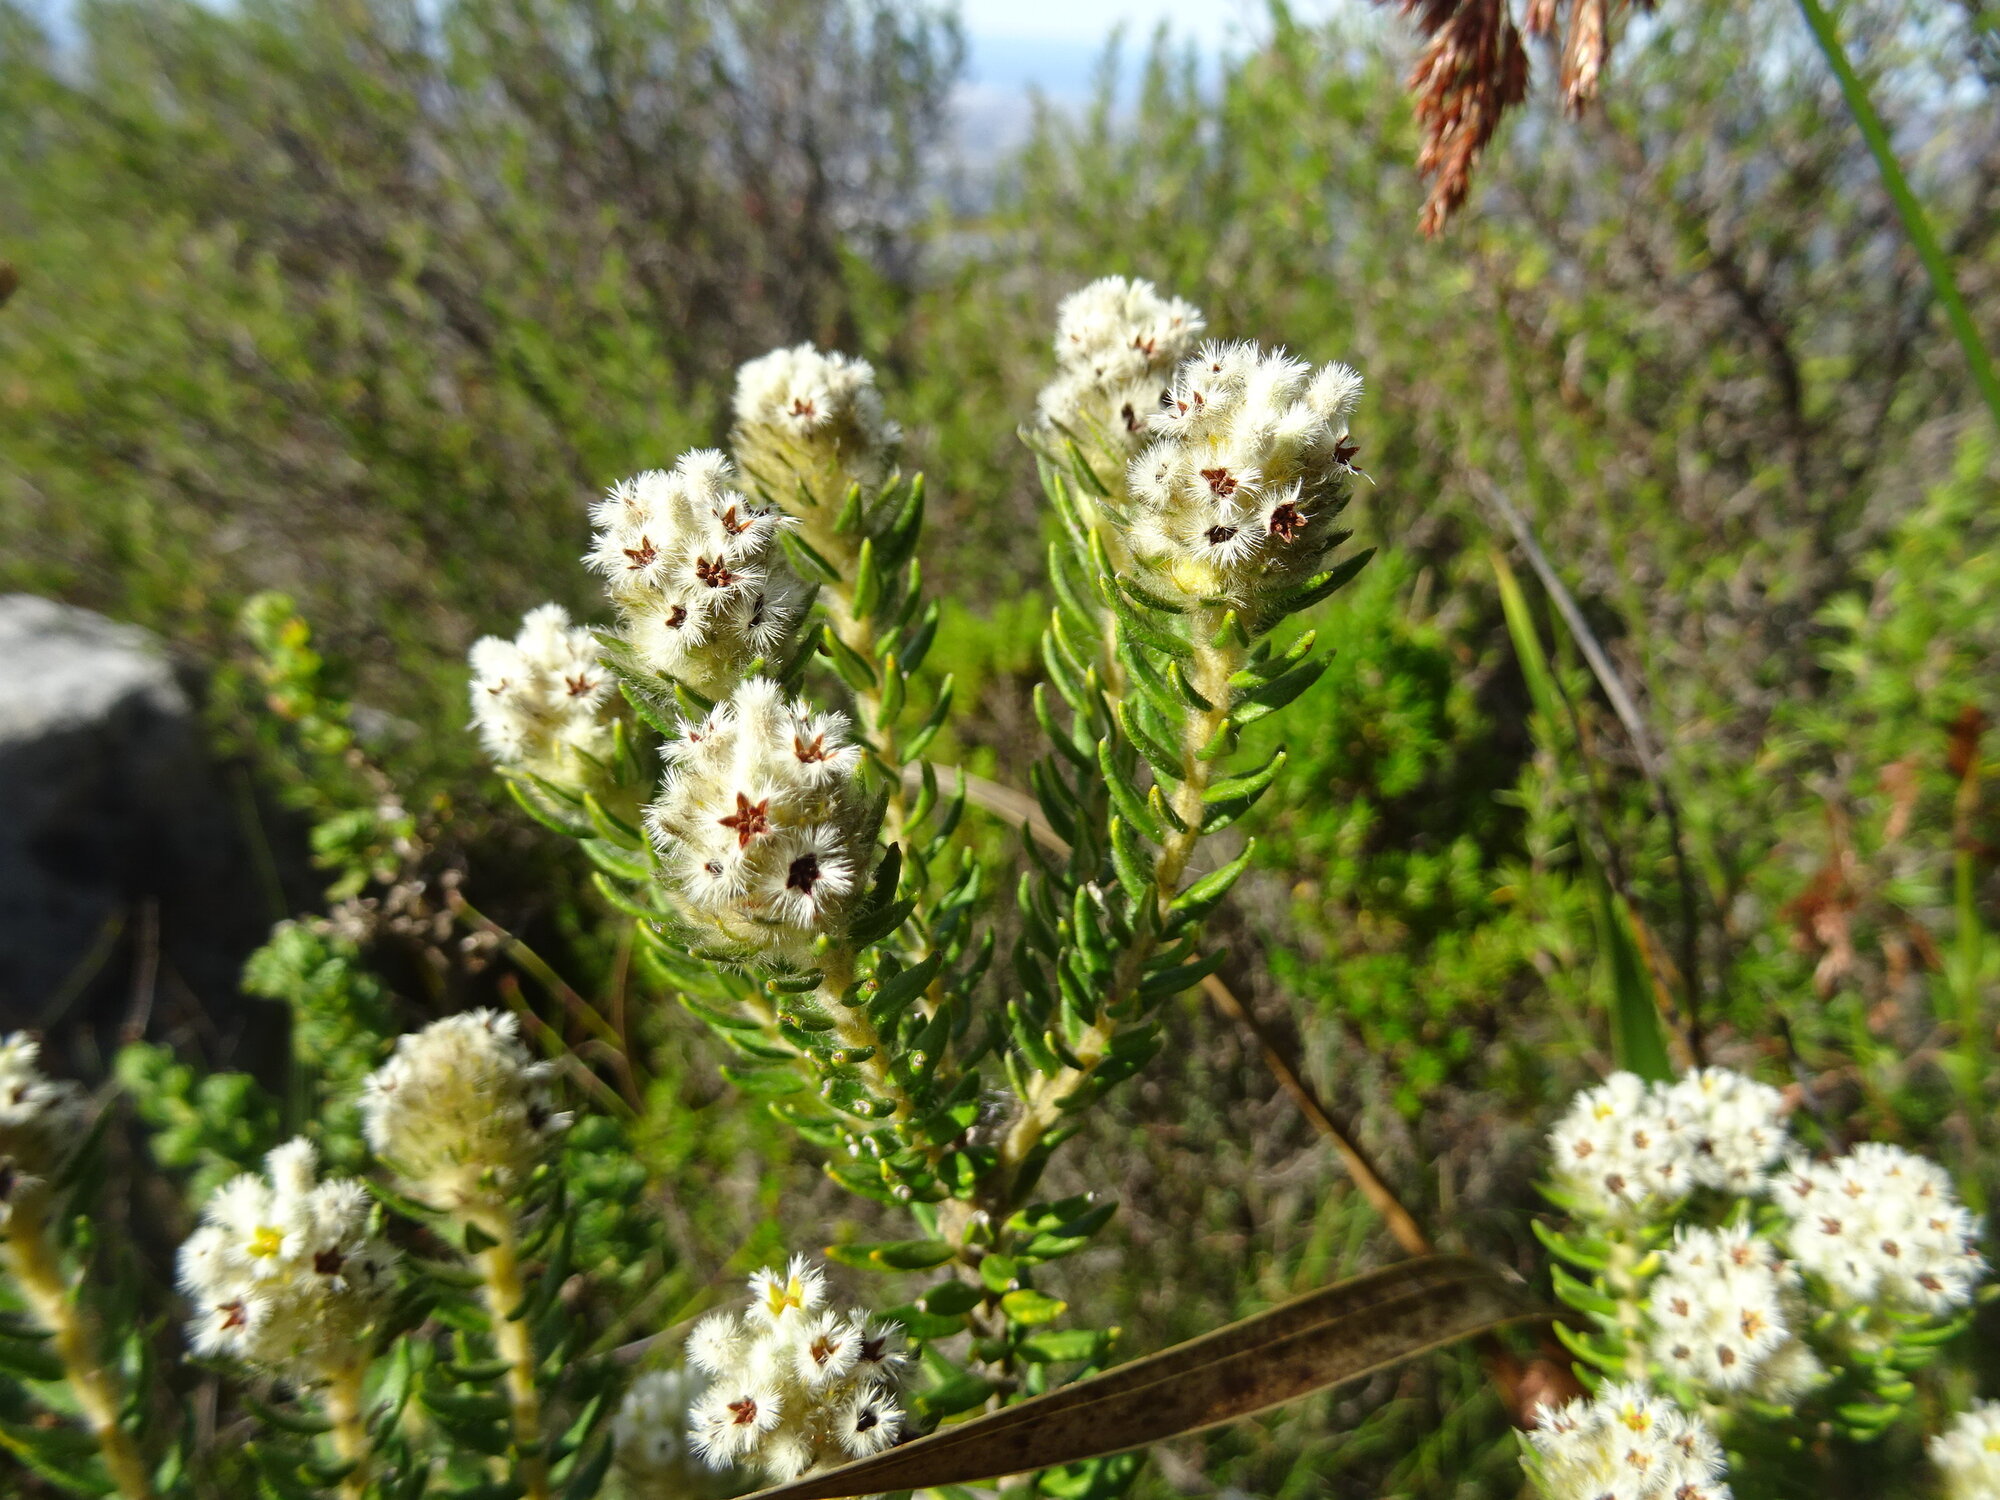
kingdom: Plantae
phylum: Tracheophyta
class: Magnoliopsida
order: Rosales
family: Rhamnaceae
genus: Phylica
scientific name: Phylica strigosa
